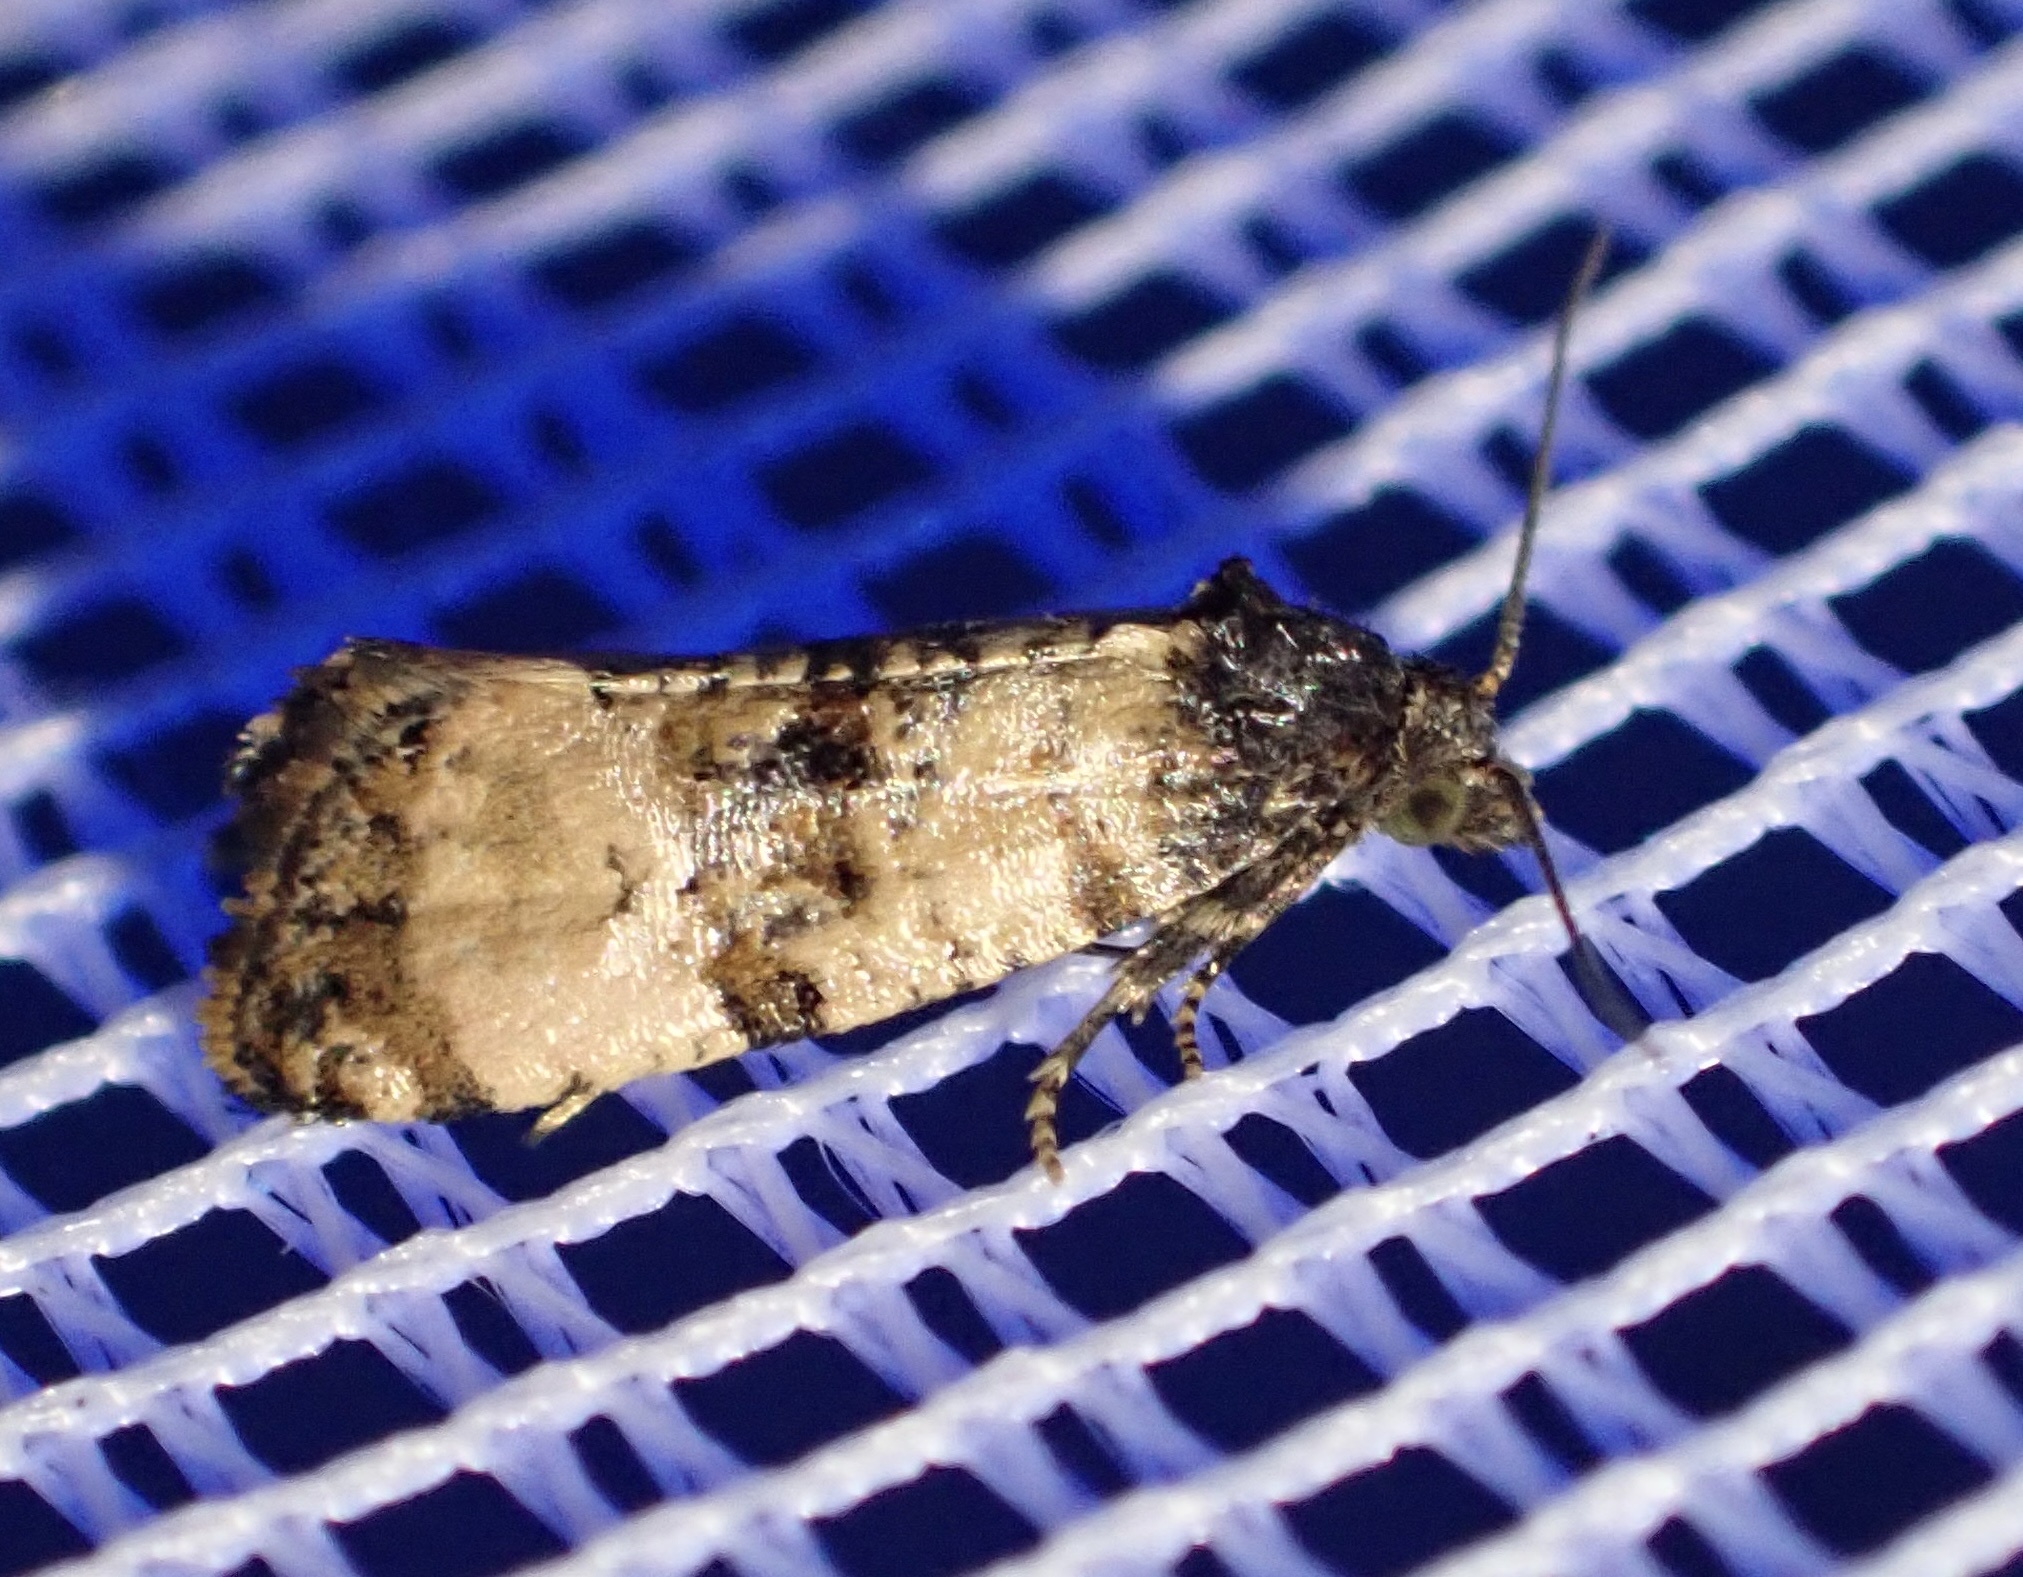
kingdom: Animalia
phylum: Arthropoda
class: Insecta
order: Lepidoptera
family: Tortricidae
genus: Cochylis
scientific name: Cochylis atricapitana
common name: Tortricid moth
